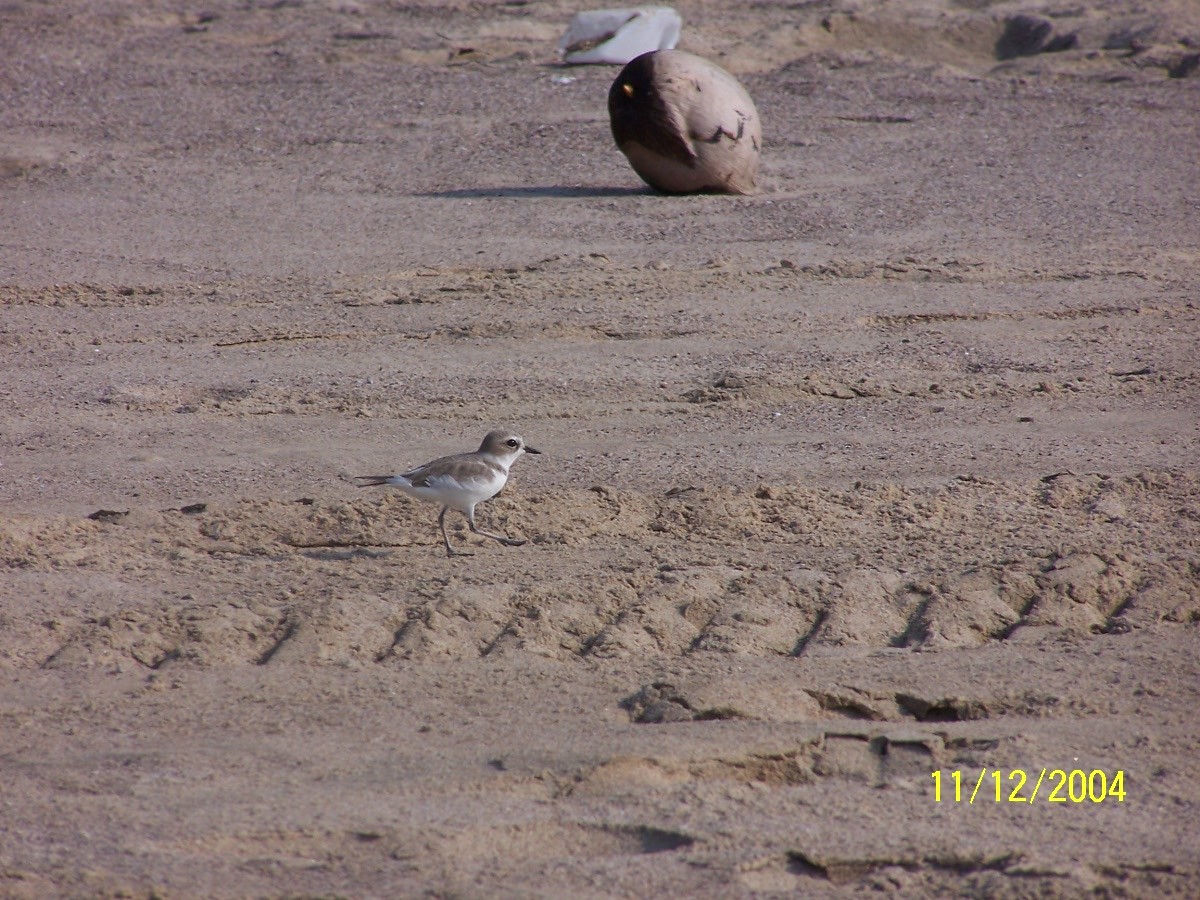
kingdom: Animalia
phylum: Chordata
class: Aves
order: Charadriiformes
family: Charadriidae
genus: Anarhynchus
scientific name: Anarhynchus
